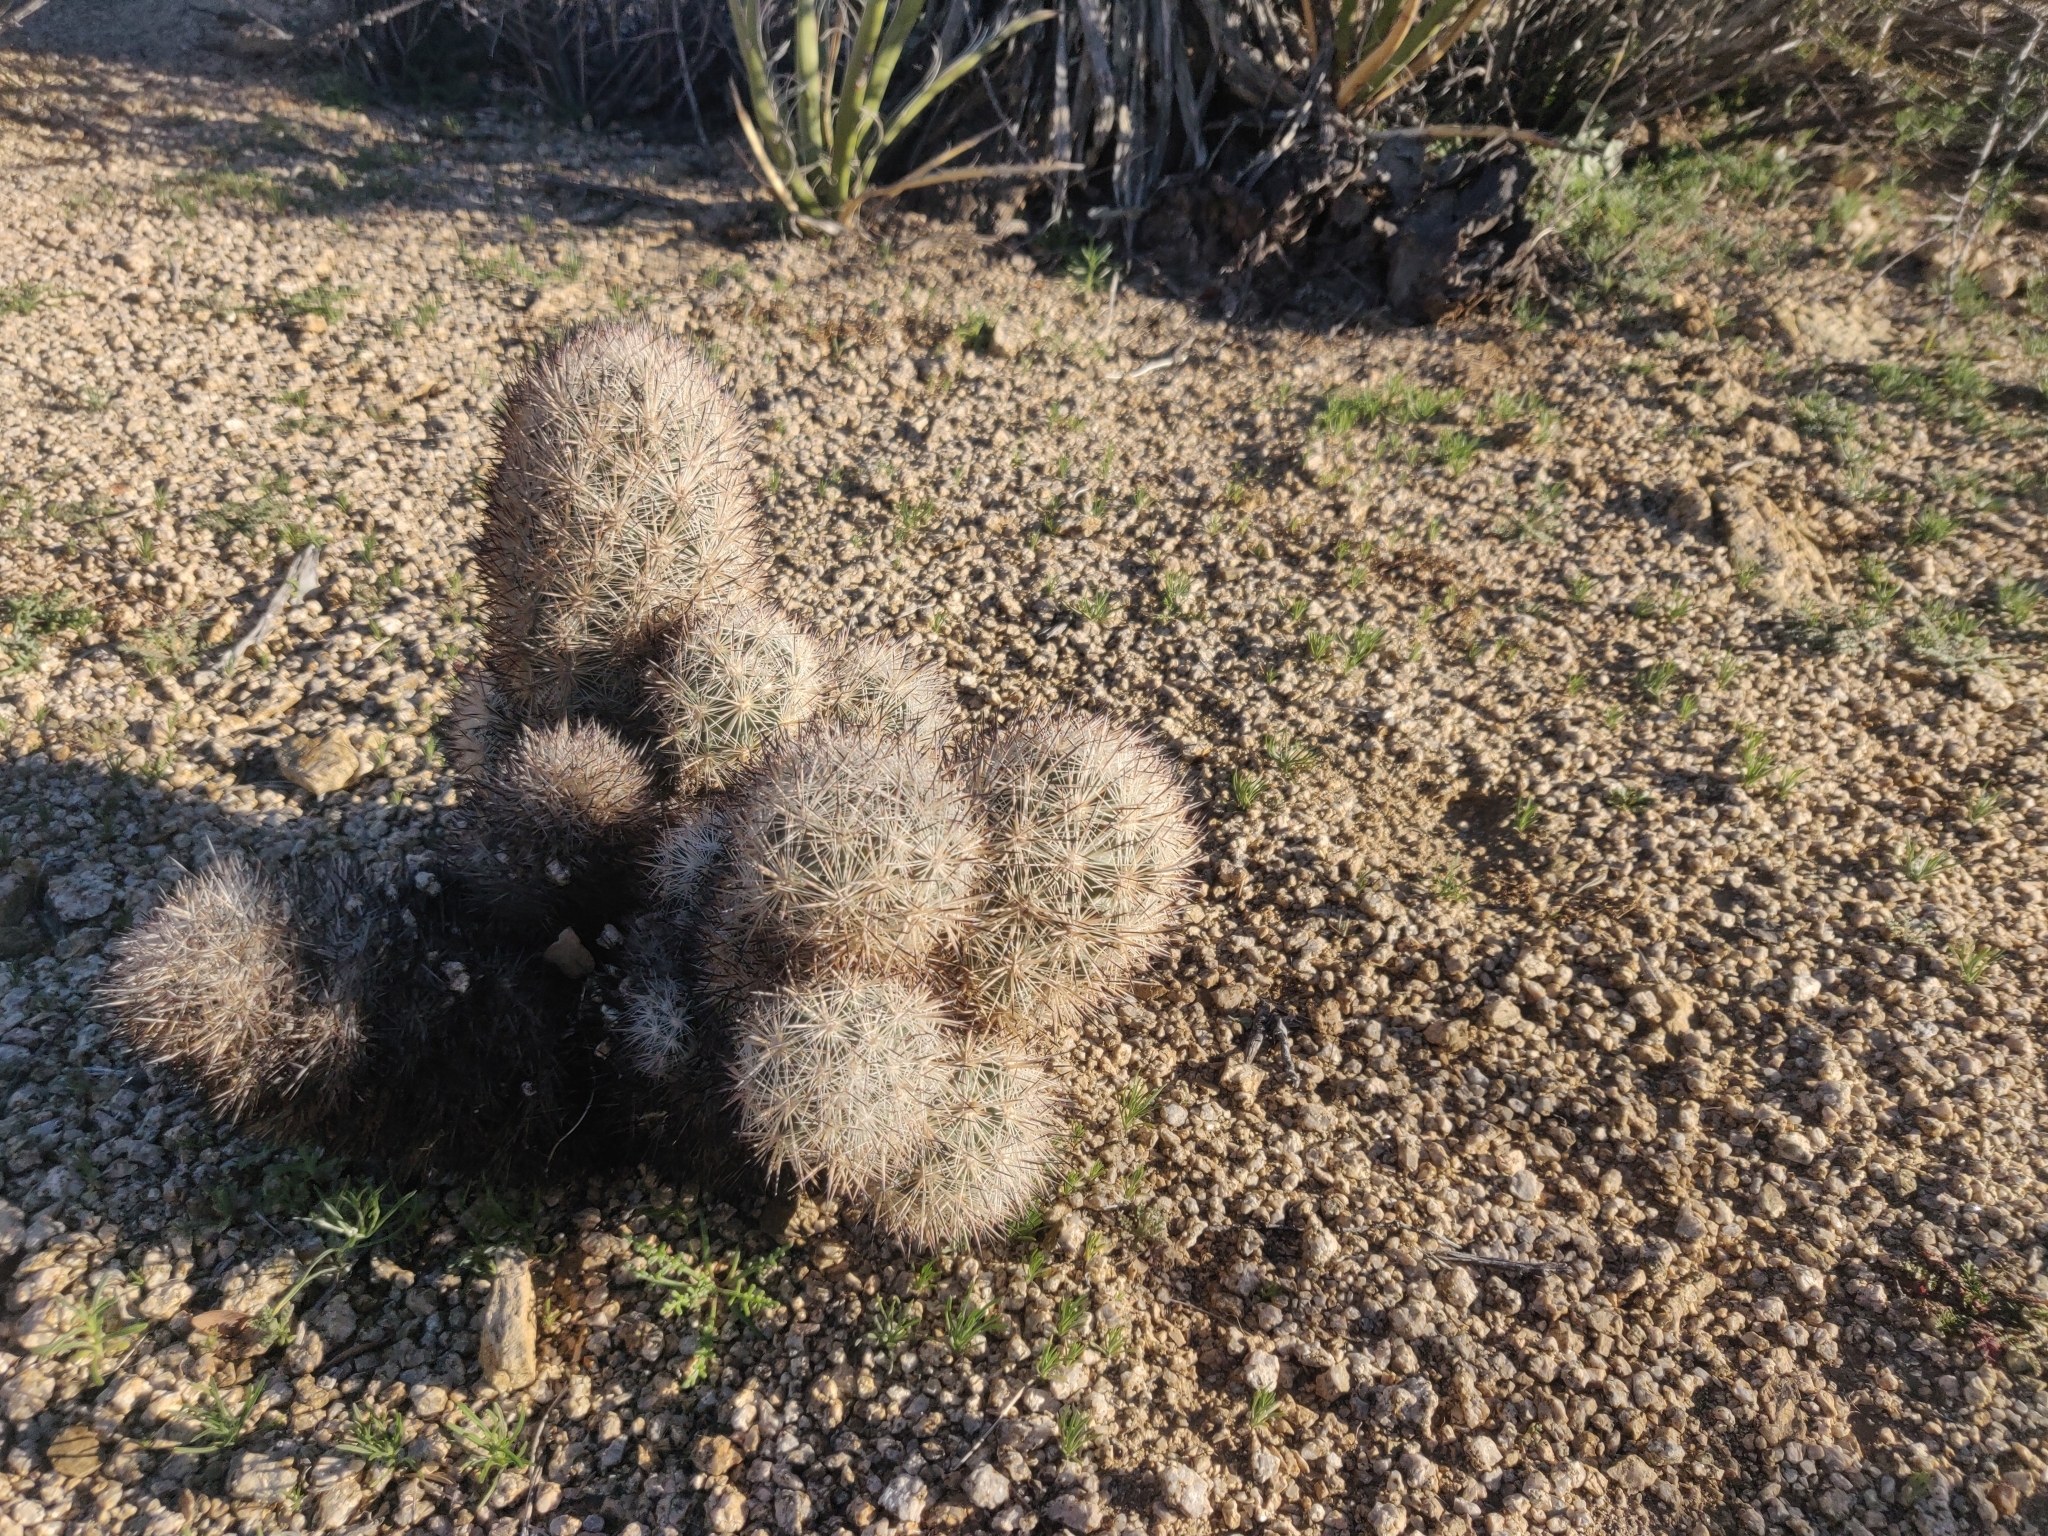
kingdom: Plantae
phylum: Tracheophyta
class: Magnoliopsida
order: Caryophyllales
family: Cactaceae
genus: Pelecyphora
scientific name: Pelecyphora alversonii
